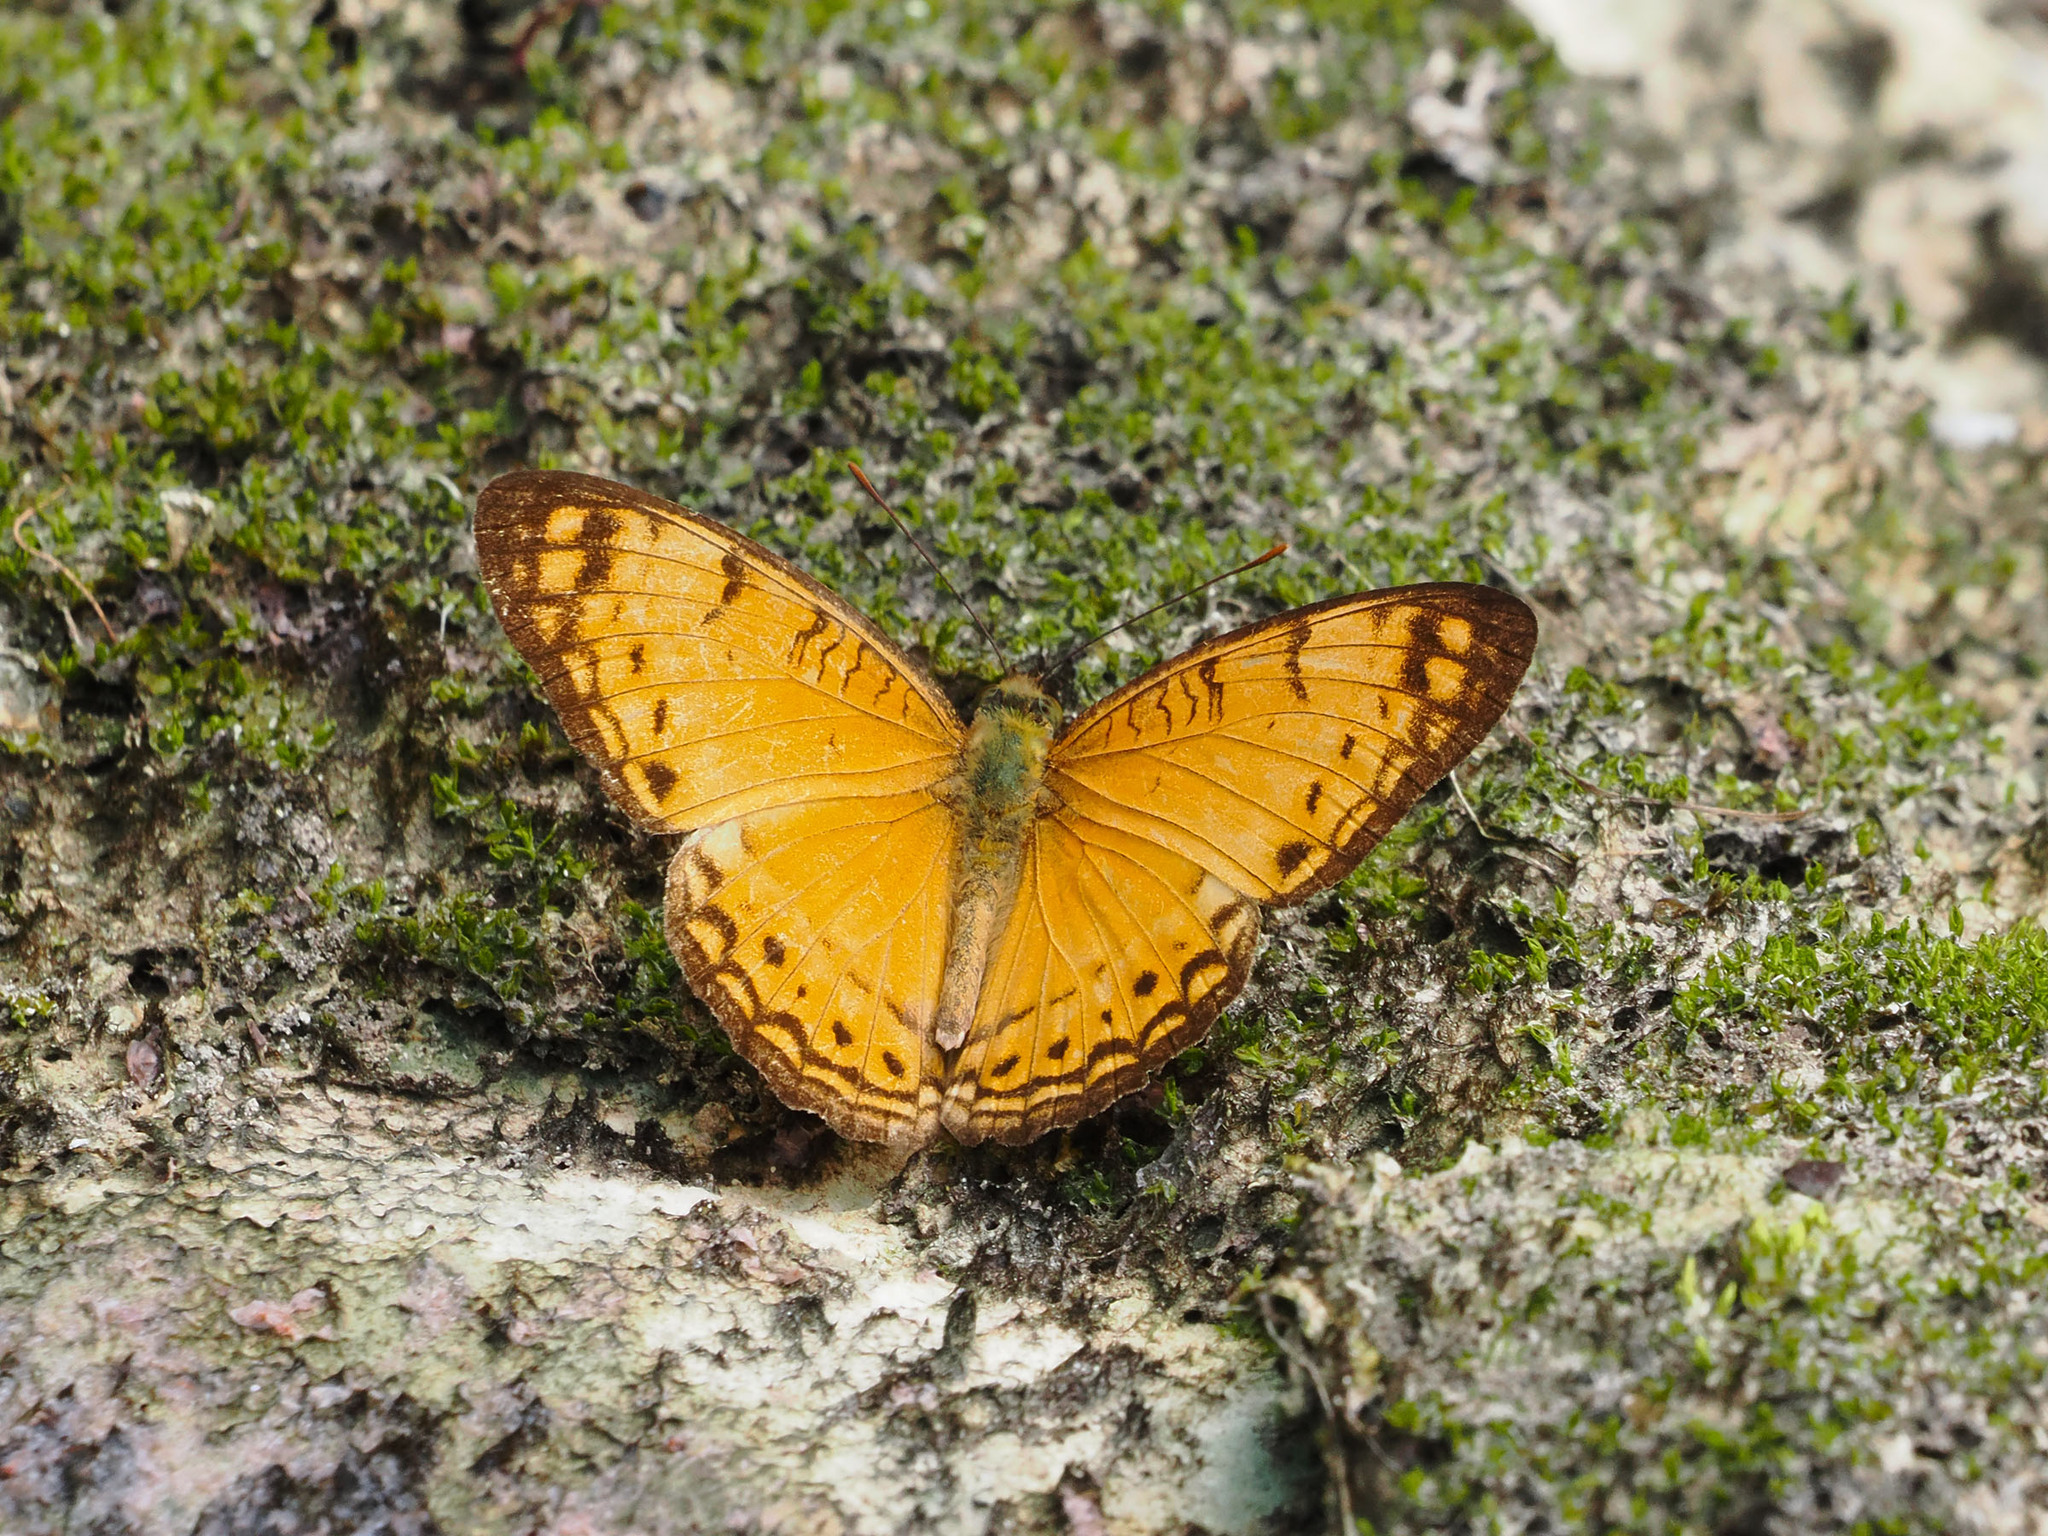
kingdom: Animalia
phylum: Arthropoda
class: Insecta
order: Lepidoptera
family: Nymphalidae
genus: Phalanta
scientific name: Phalanta alcippe
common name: Small leopard
